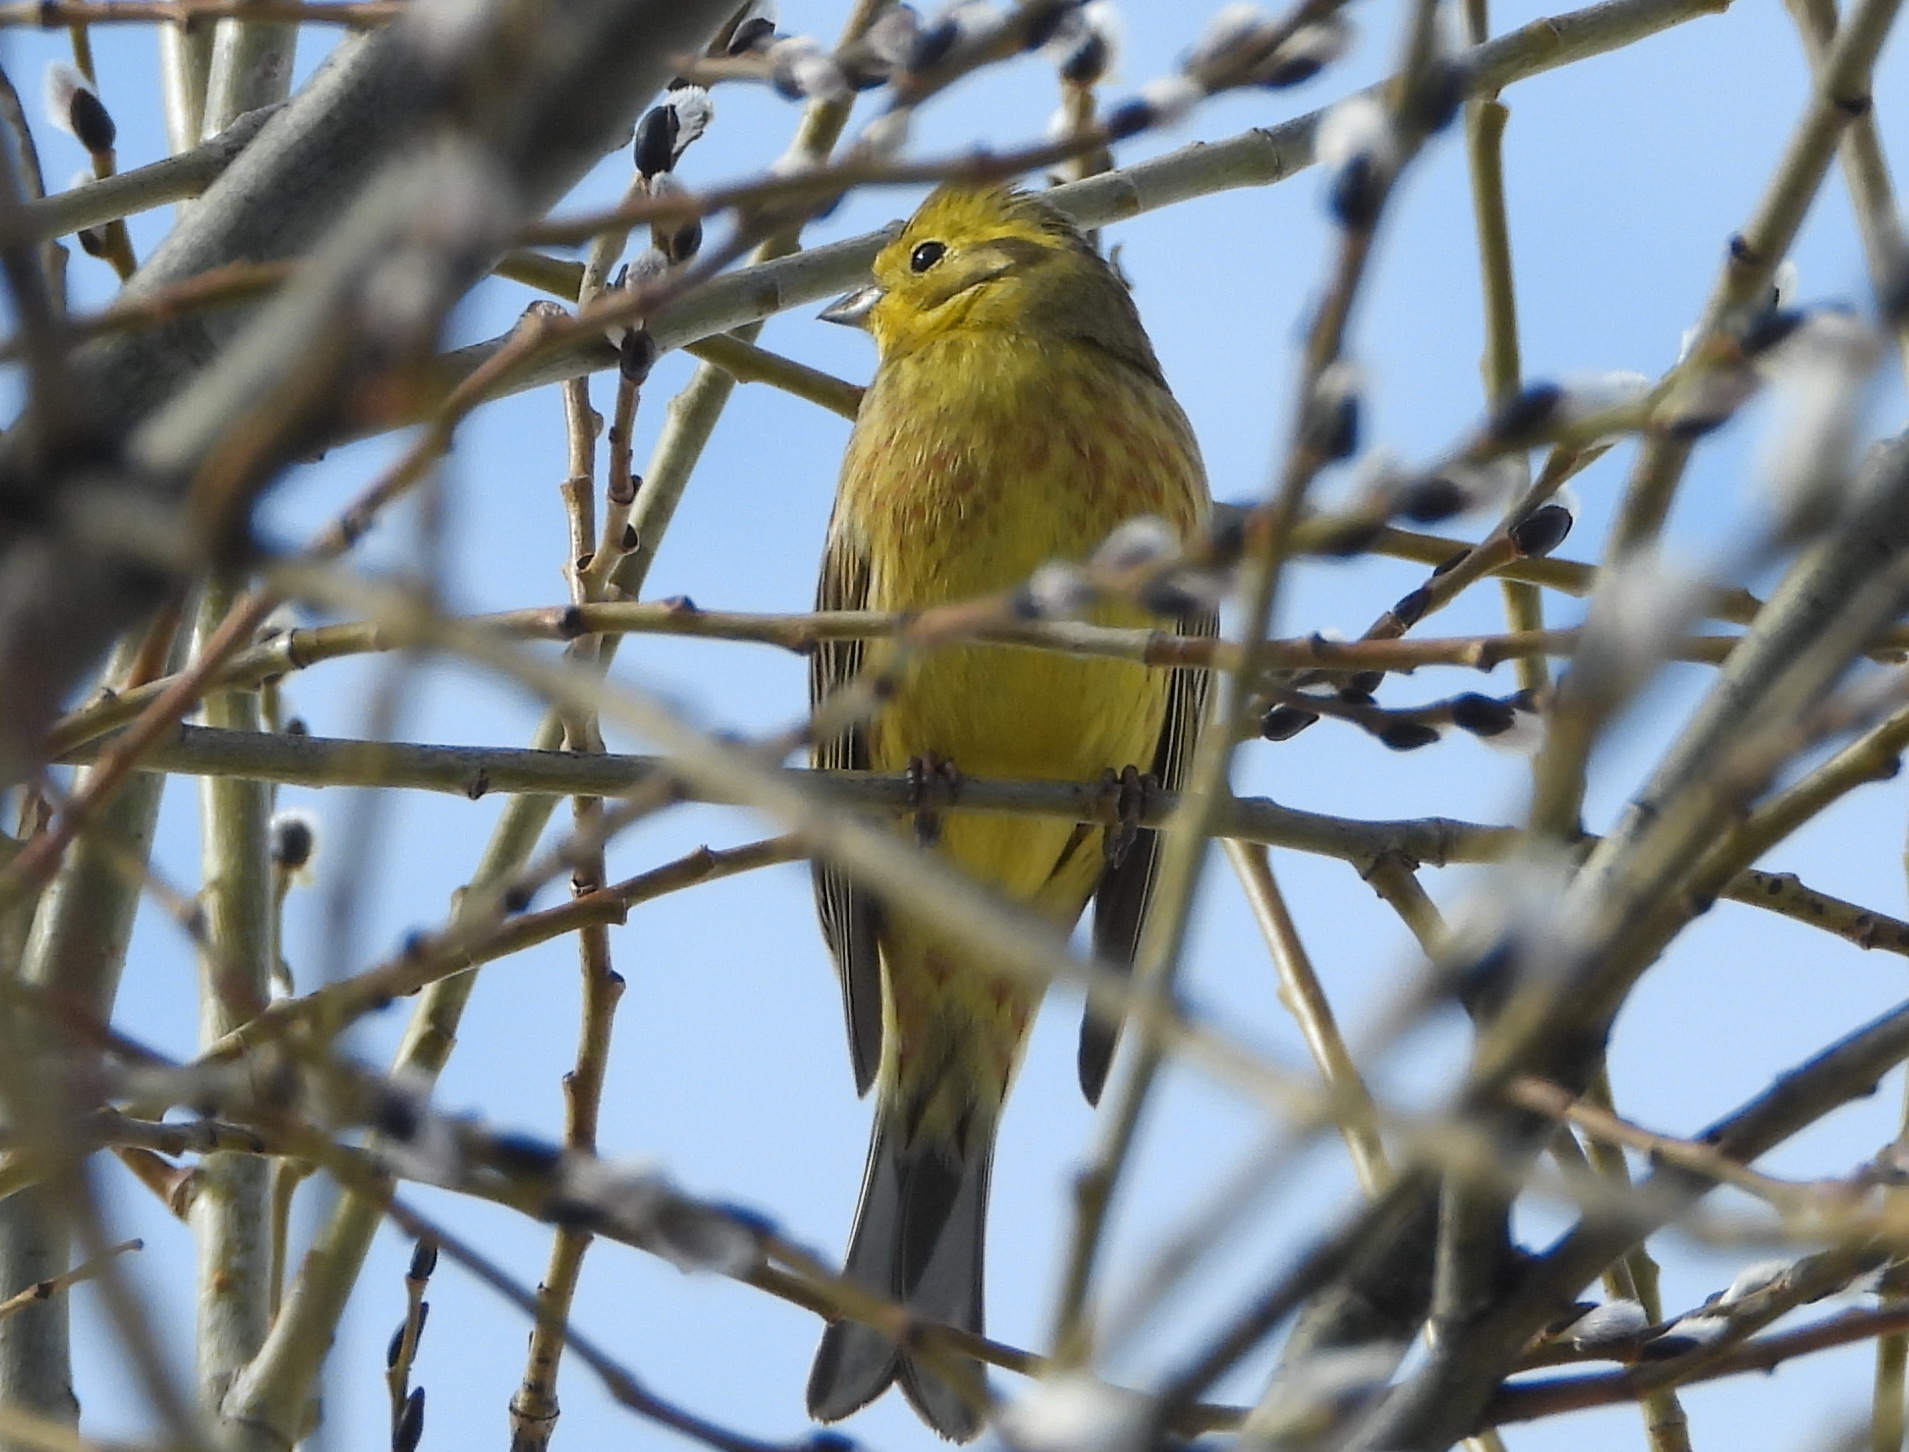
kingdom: Animalia
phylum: Chordata
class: Aves
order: Passeriformes
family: Emberizidae
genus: Emberiza
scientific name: Emberiza citrinella
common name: Yellowhammer
